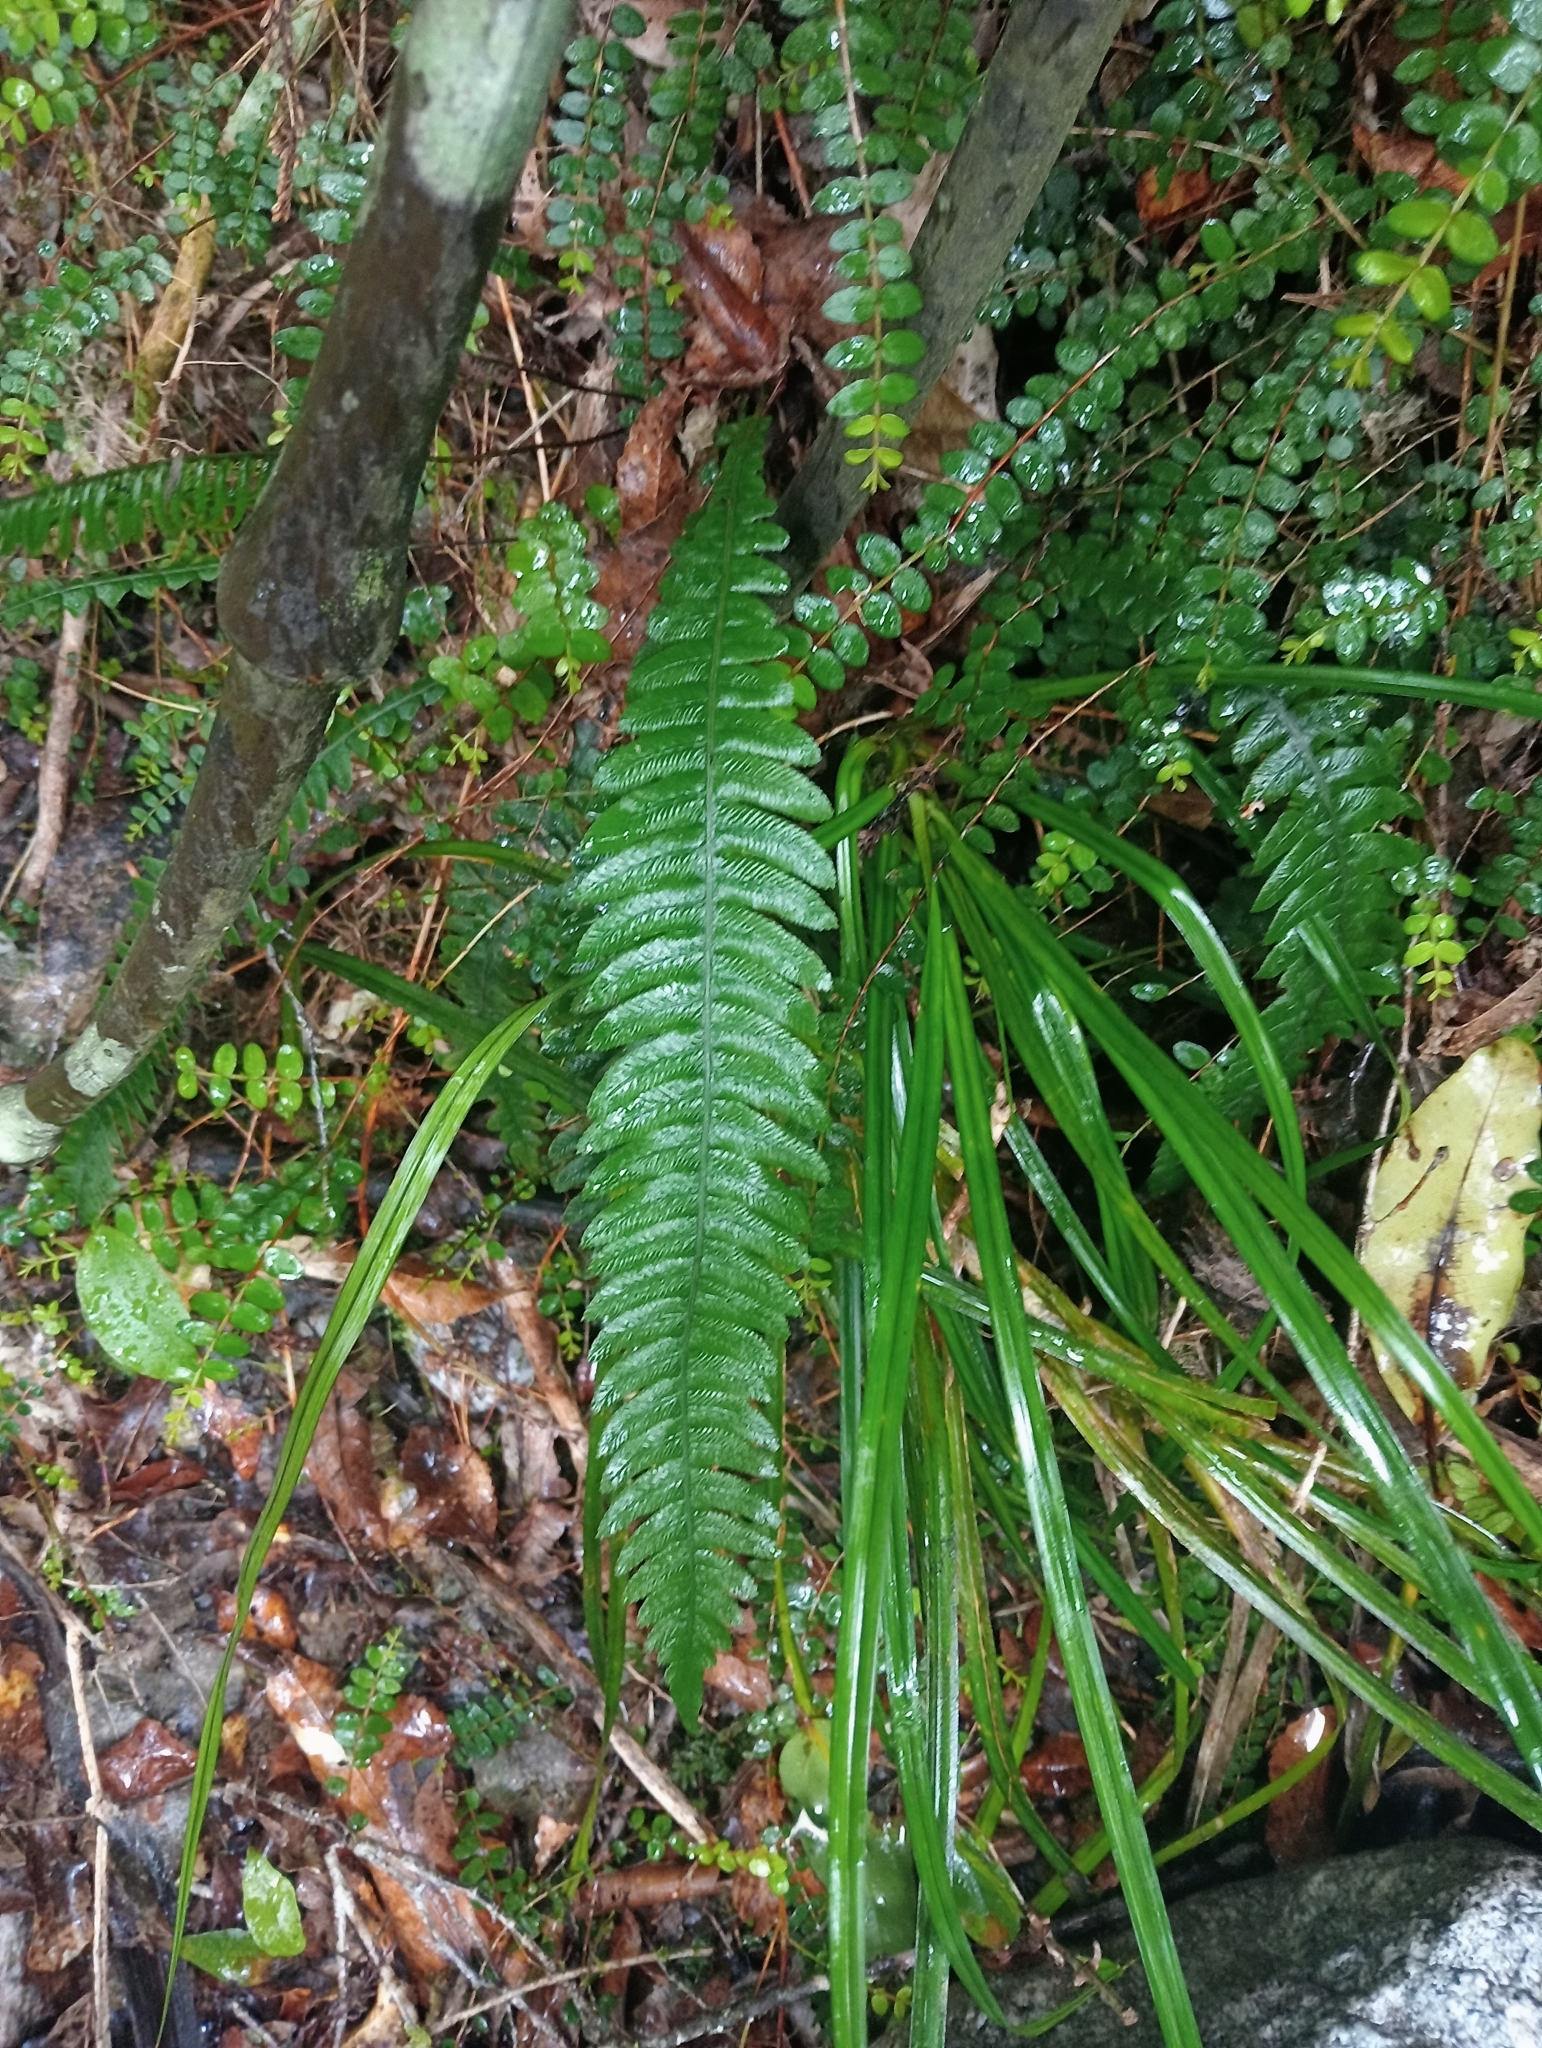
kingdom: Plantae
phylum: Tracheophyta
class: Polypodiopsida
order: Polypodiales
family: Blechnaceae
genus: Austroblechnum
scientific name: Austroblechnum lanceolatum
